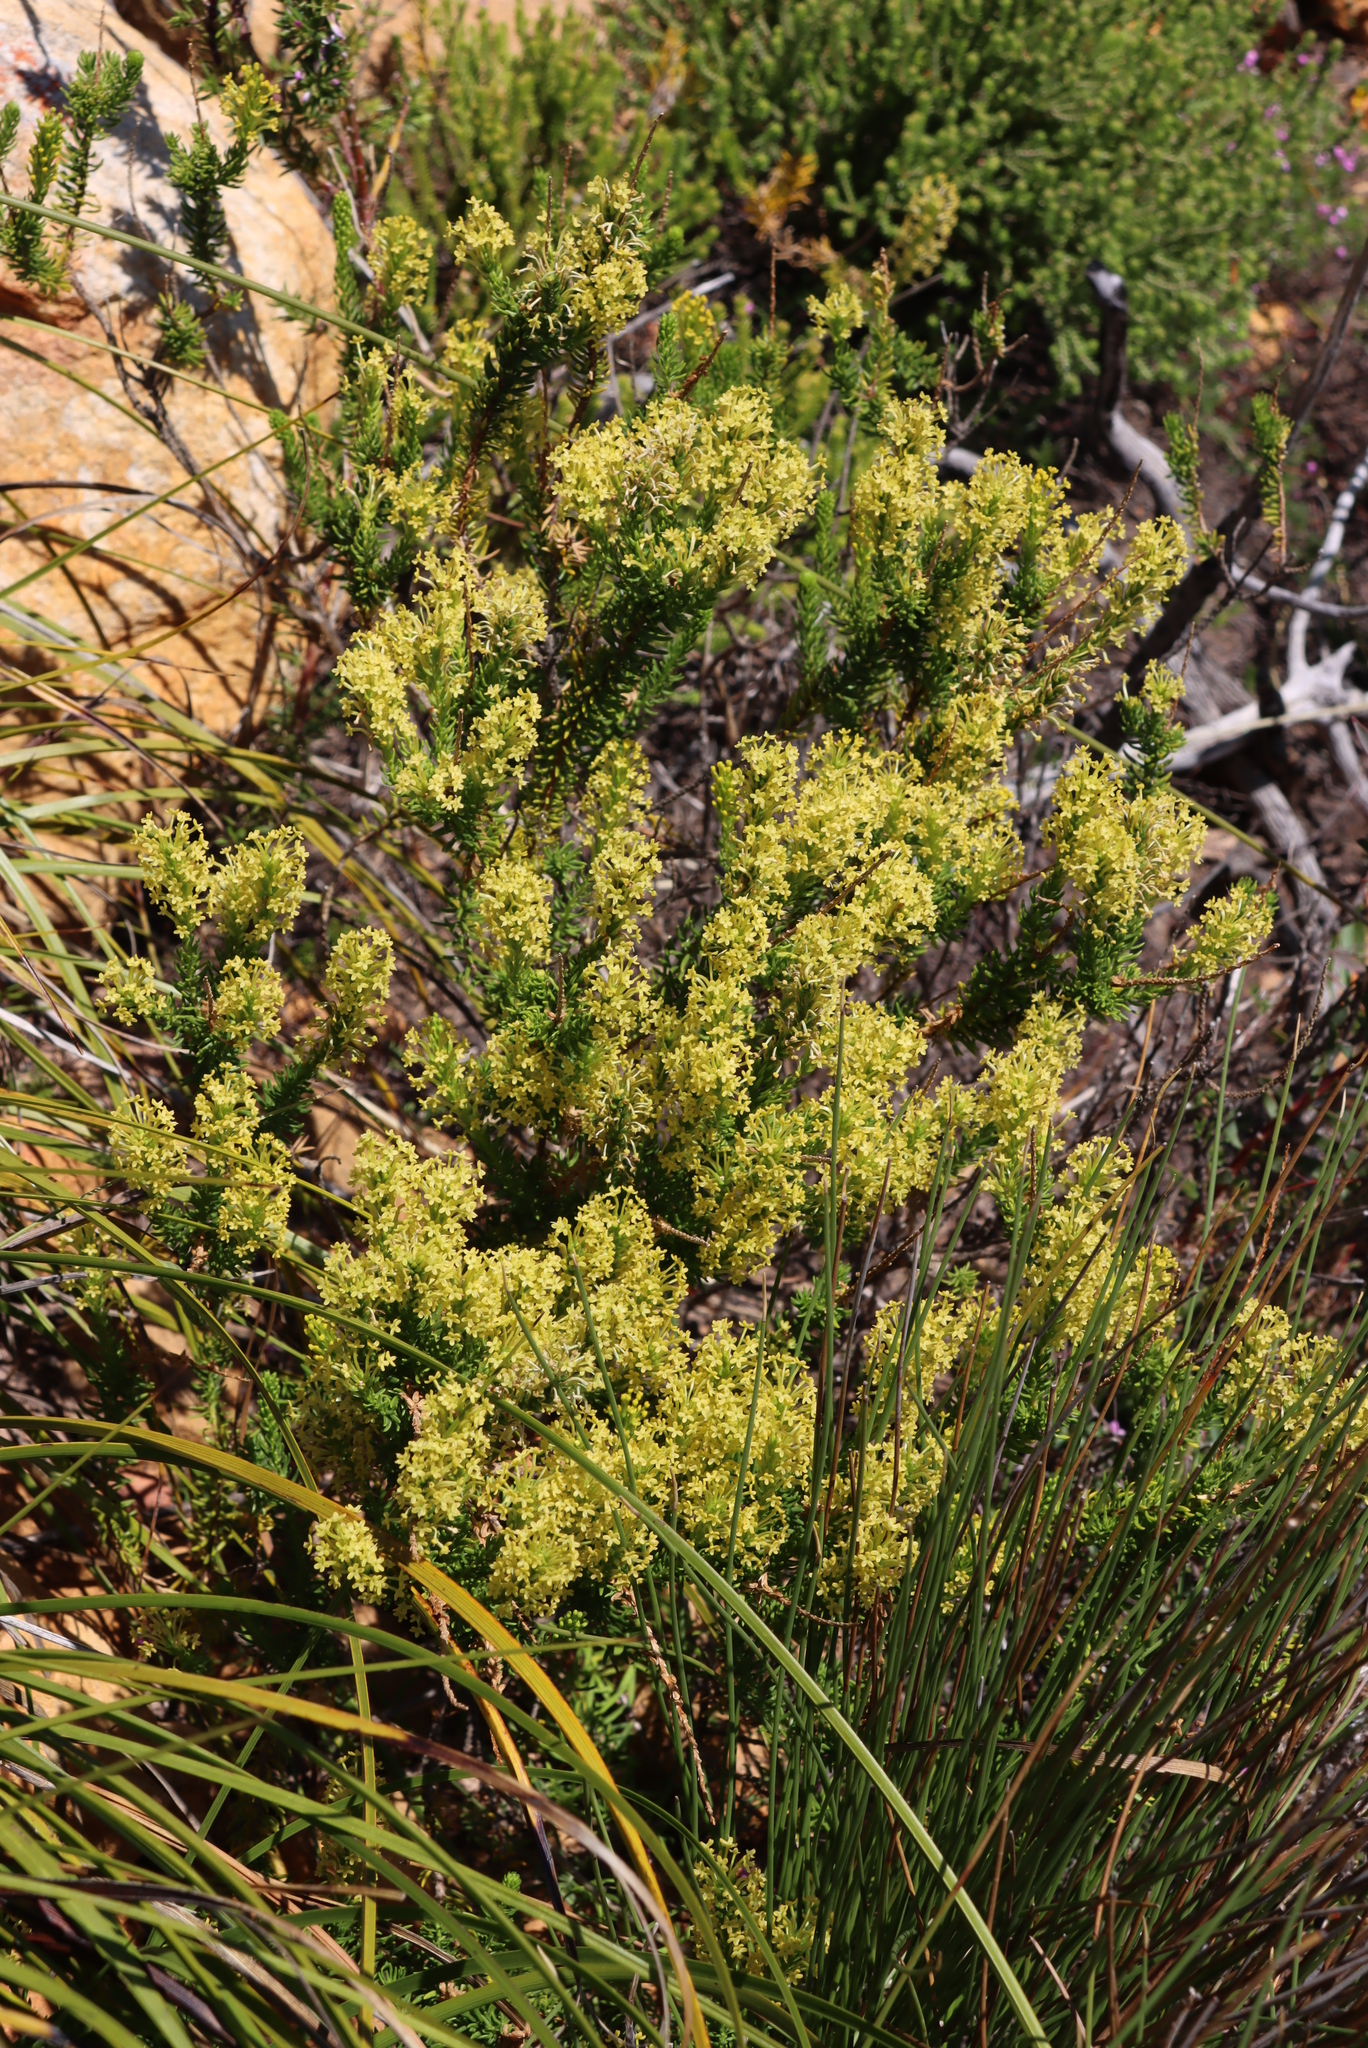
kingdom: Plantae
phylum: Tracheophyta
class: Magnoliopsida
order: Lamiales
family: Scrophulariaceae
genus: Microdon
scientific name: Microdon dubius
